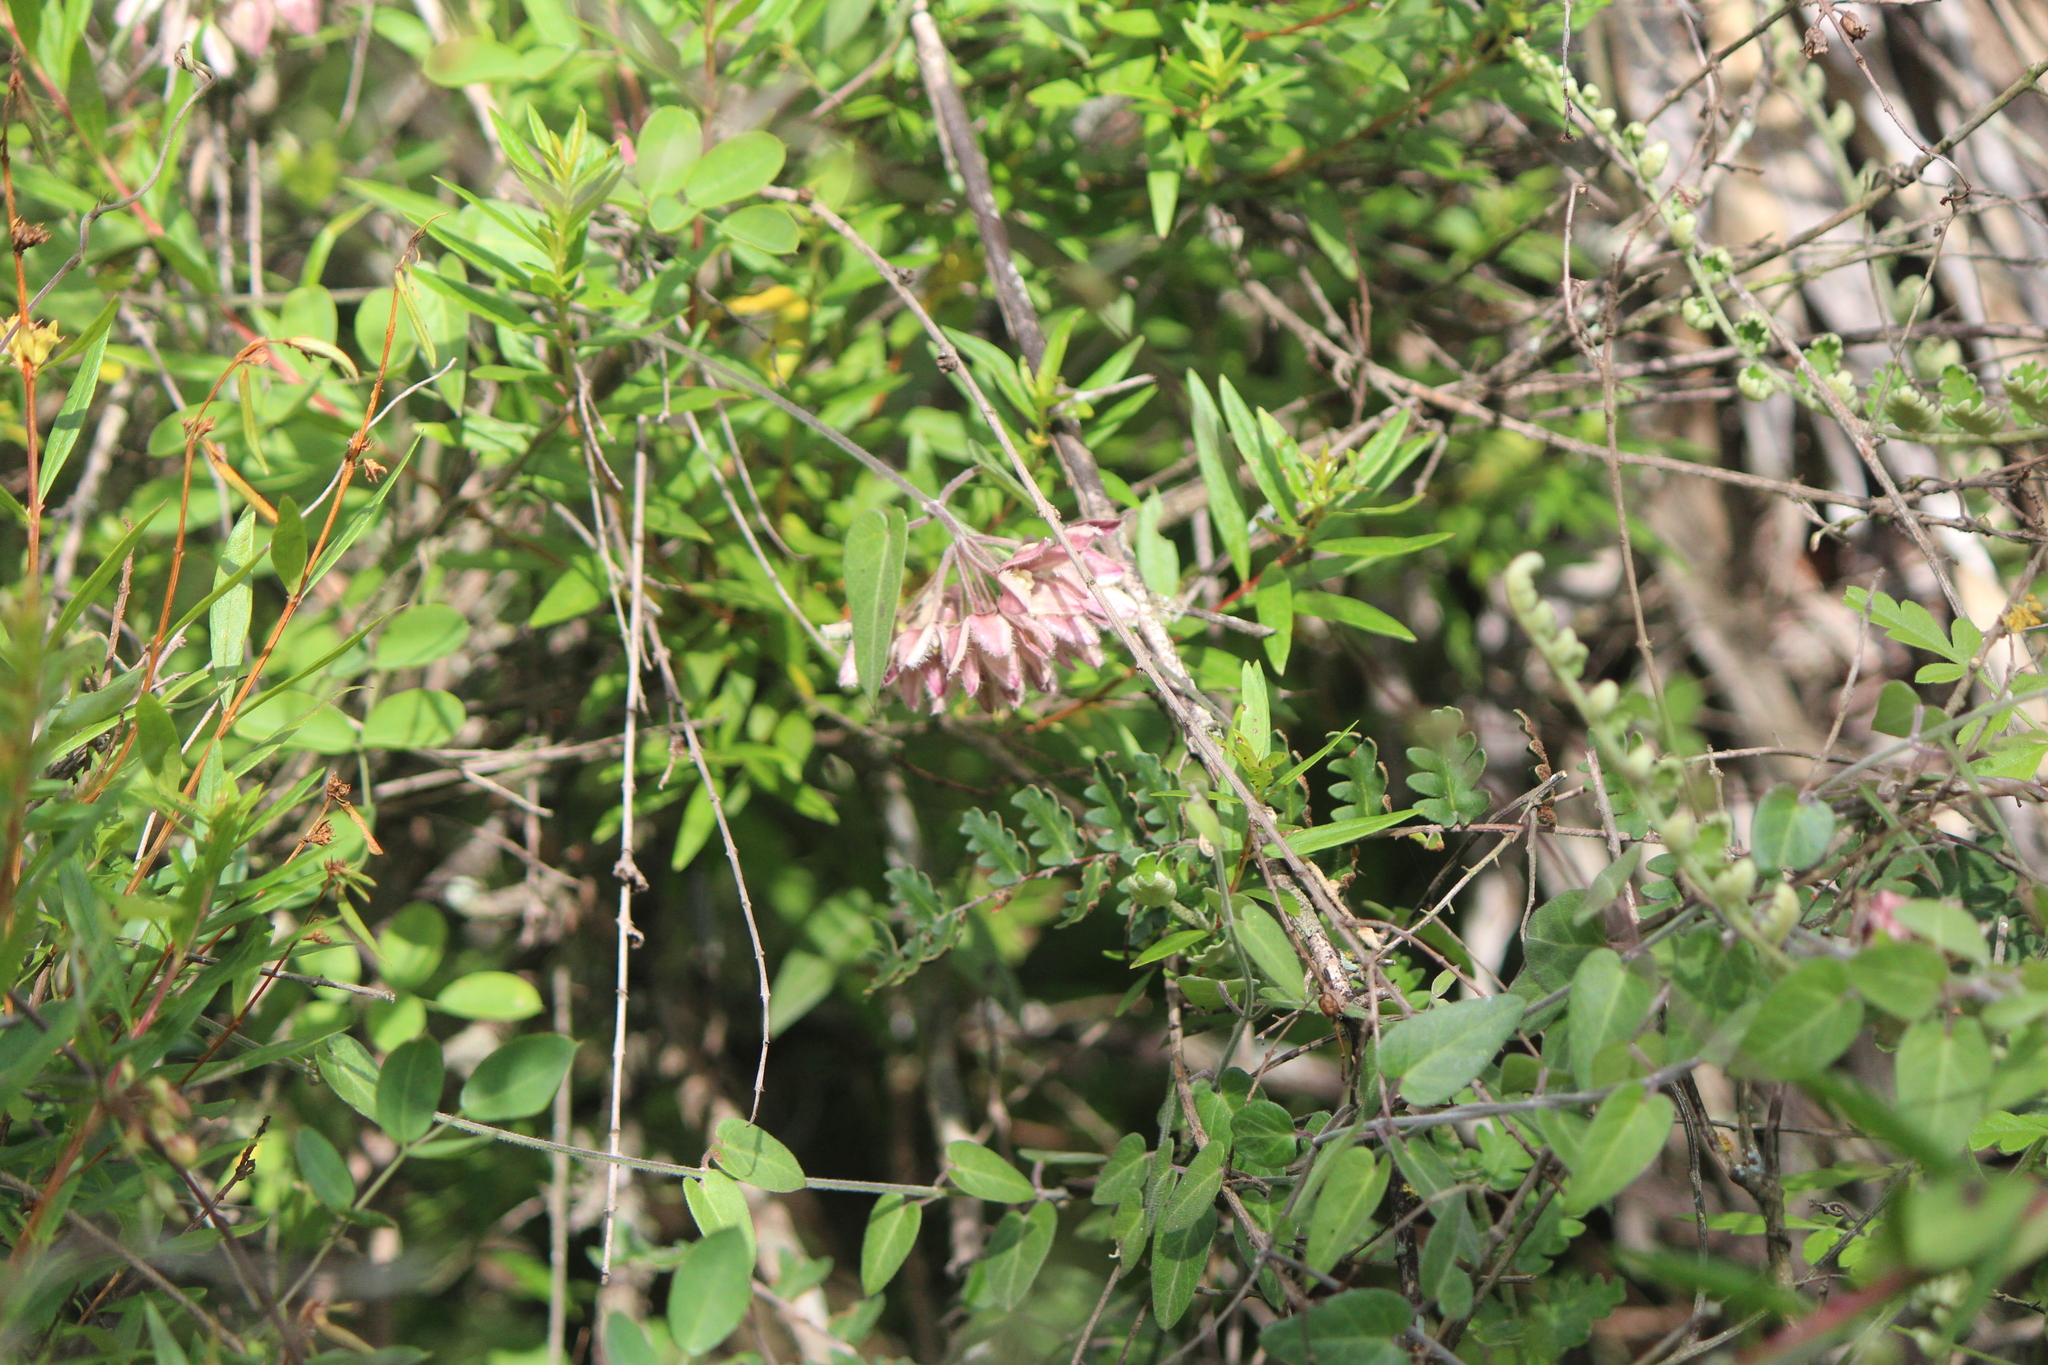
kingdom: Plantae
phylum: Tracheophyta
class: Magnoliopsida
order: Gentianales
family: Apocynaceae
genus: Funastrum
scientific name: Funastrum elegans
